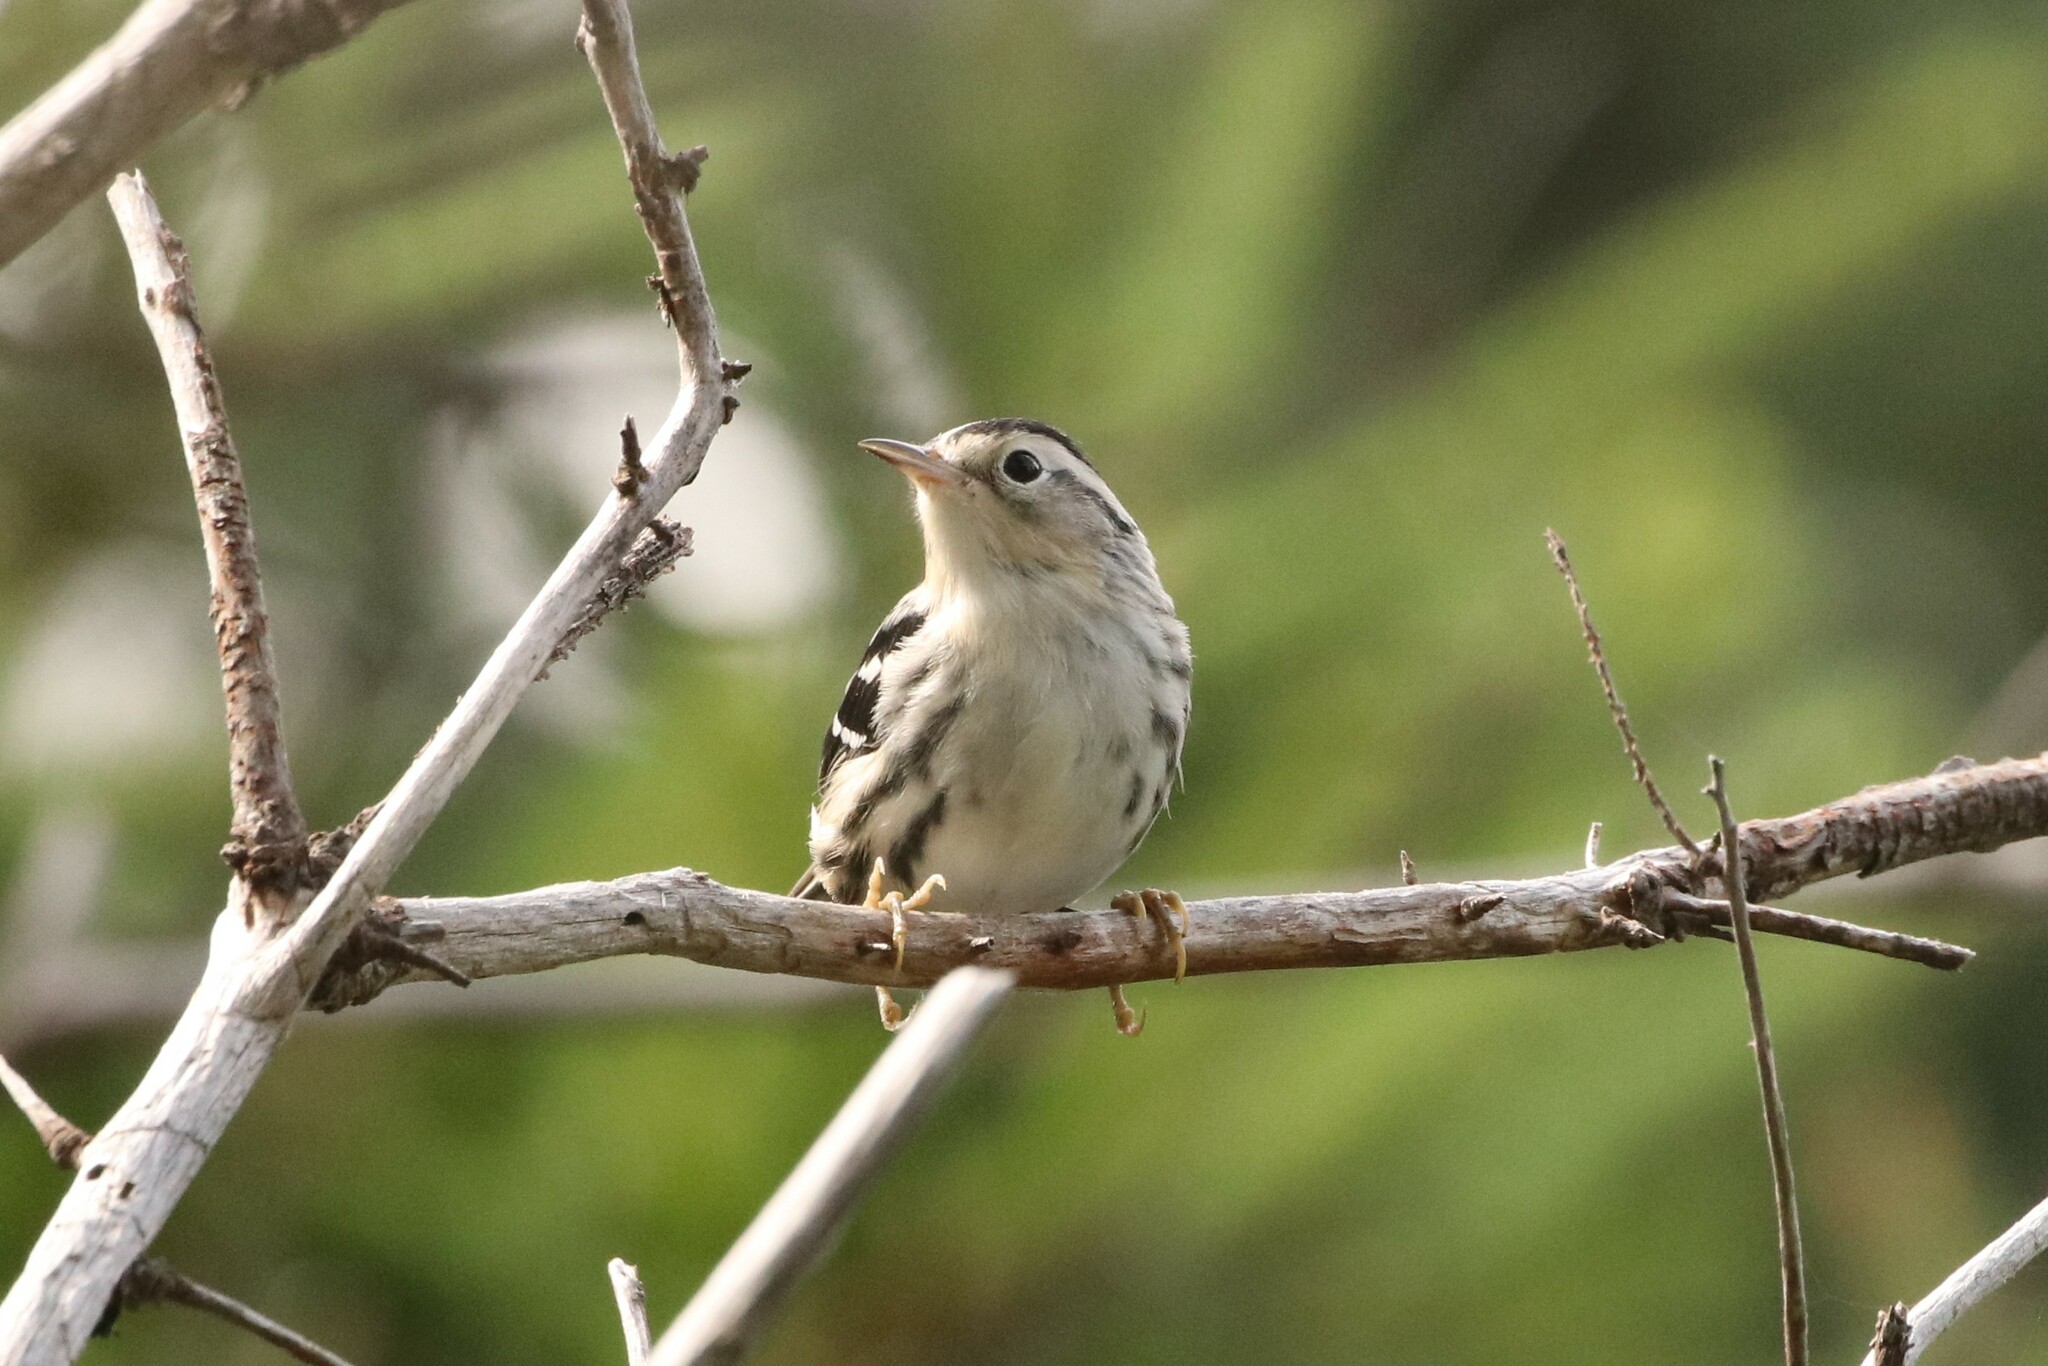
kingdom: Animalia
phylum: Chordata
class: Aves
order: Passeriformes
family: Parulidae
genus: Mniotilta
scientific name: Mniotilta varia
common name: Black-and-white warbler
